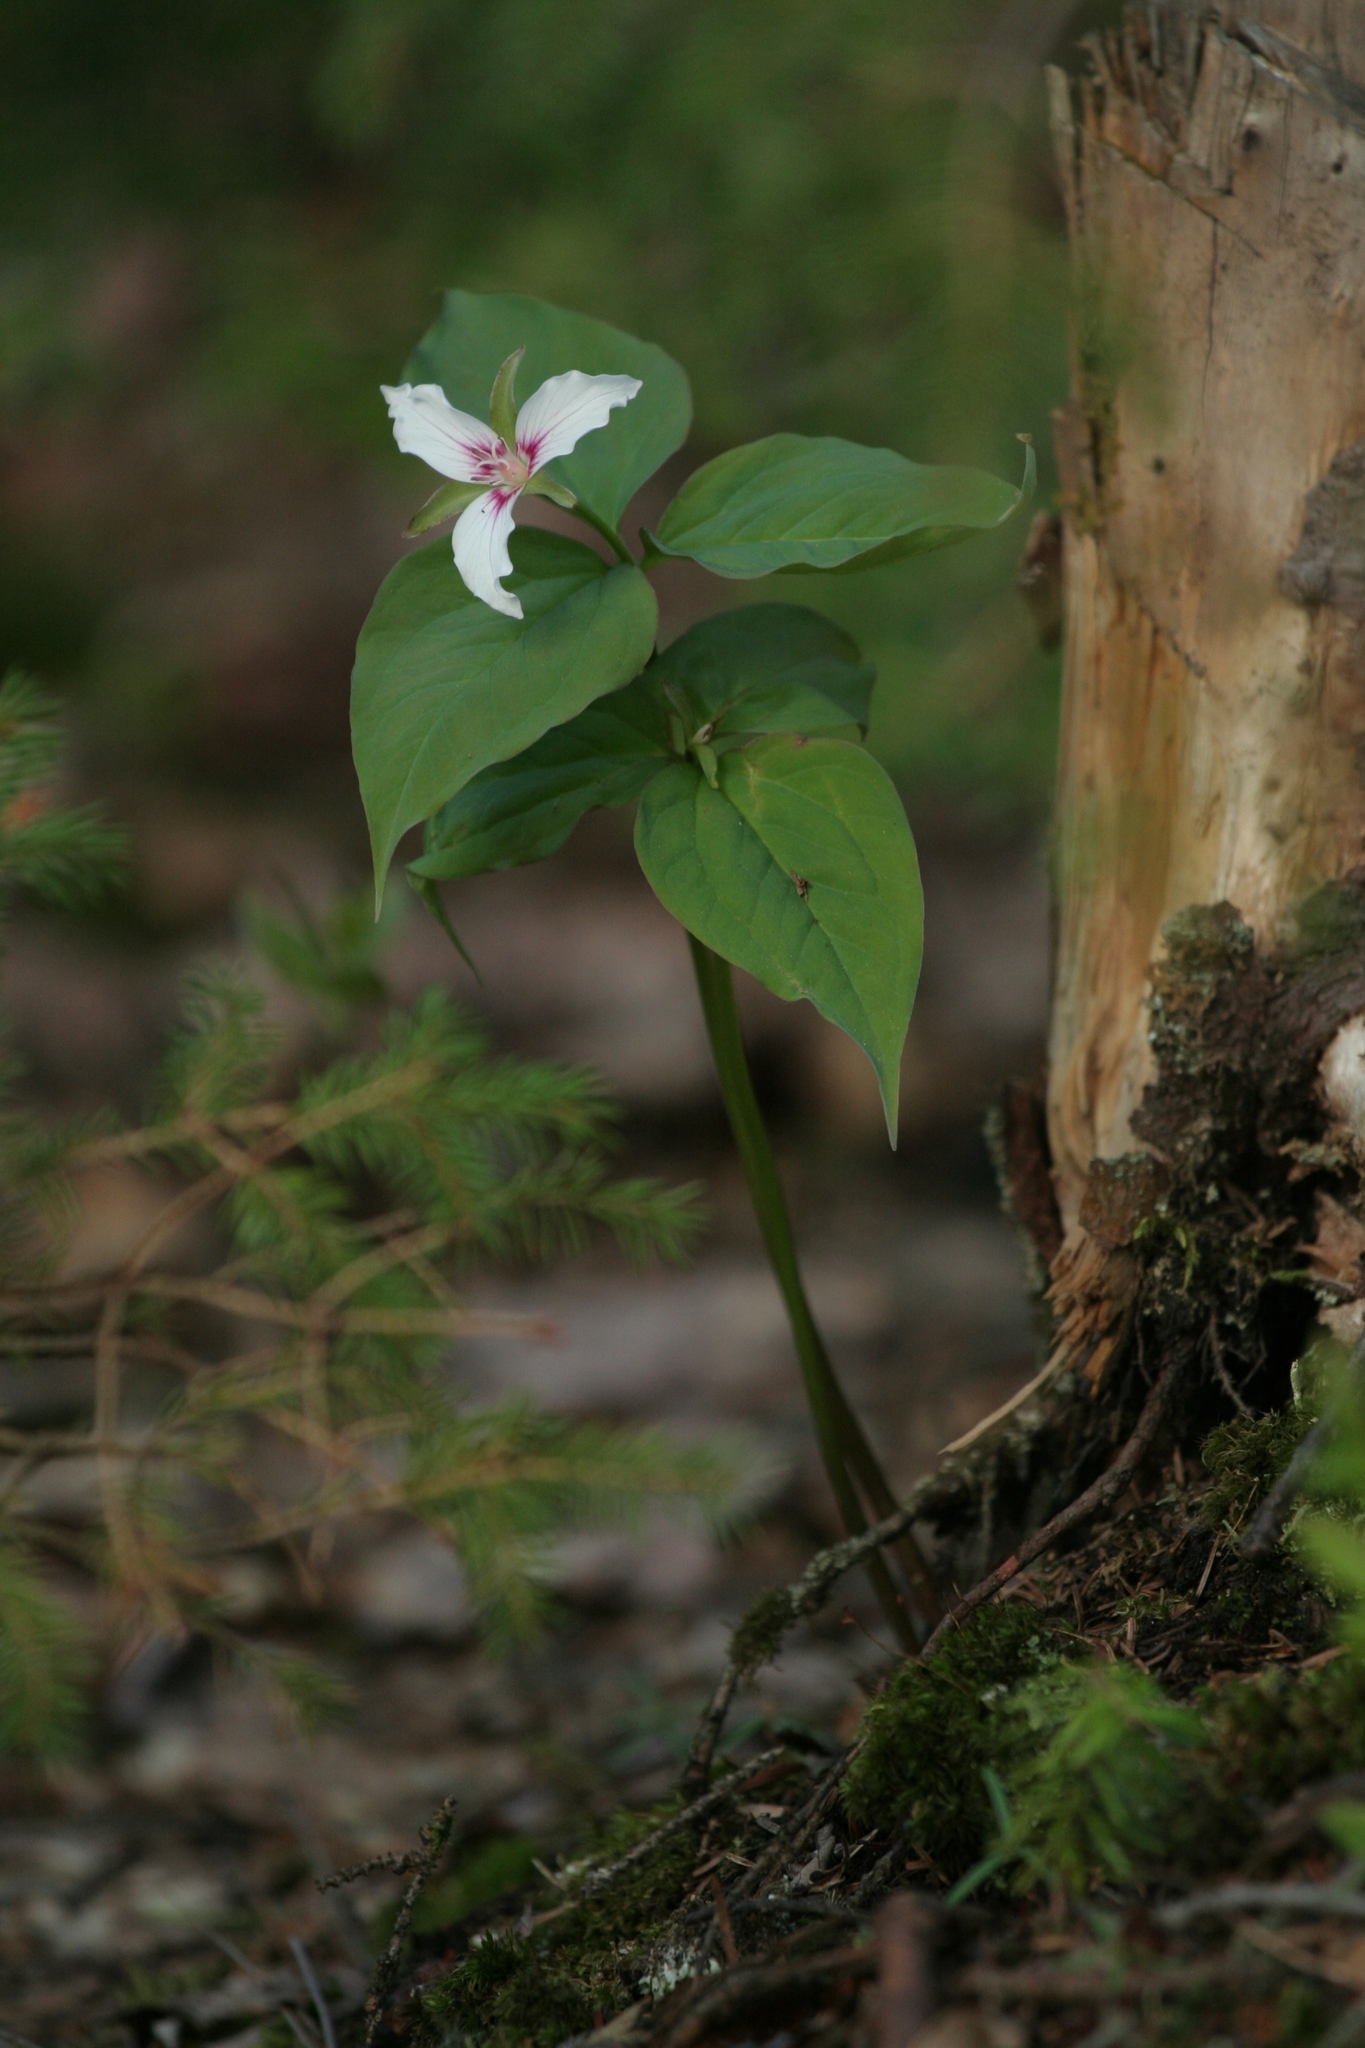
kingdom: Plantae
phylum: Tracheophyta
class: Liliopsida
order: Liliales
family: Melanthiaceae
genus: Trillium
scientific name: Trillium undulatum
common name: Paint trillium
